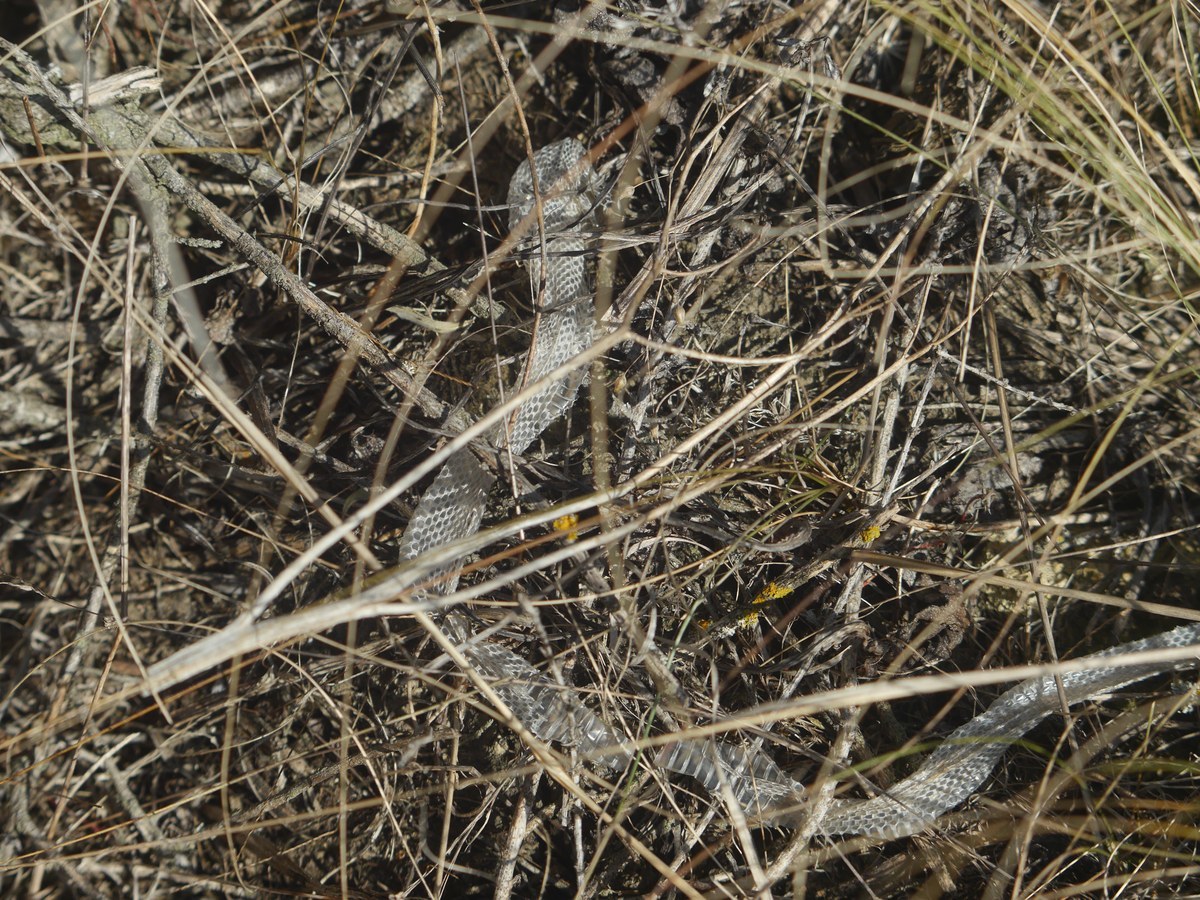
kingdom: Animalia
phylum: Chordata
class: Squamata
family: Colubridae
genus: Coronella
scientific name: Coronella austriaca
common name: Smooth snake
